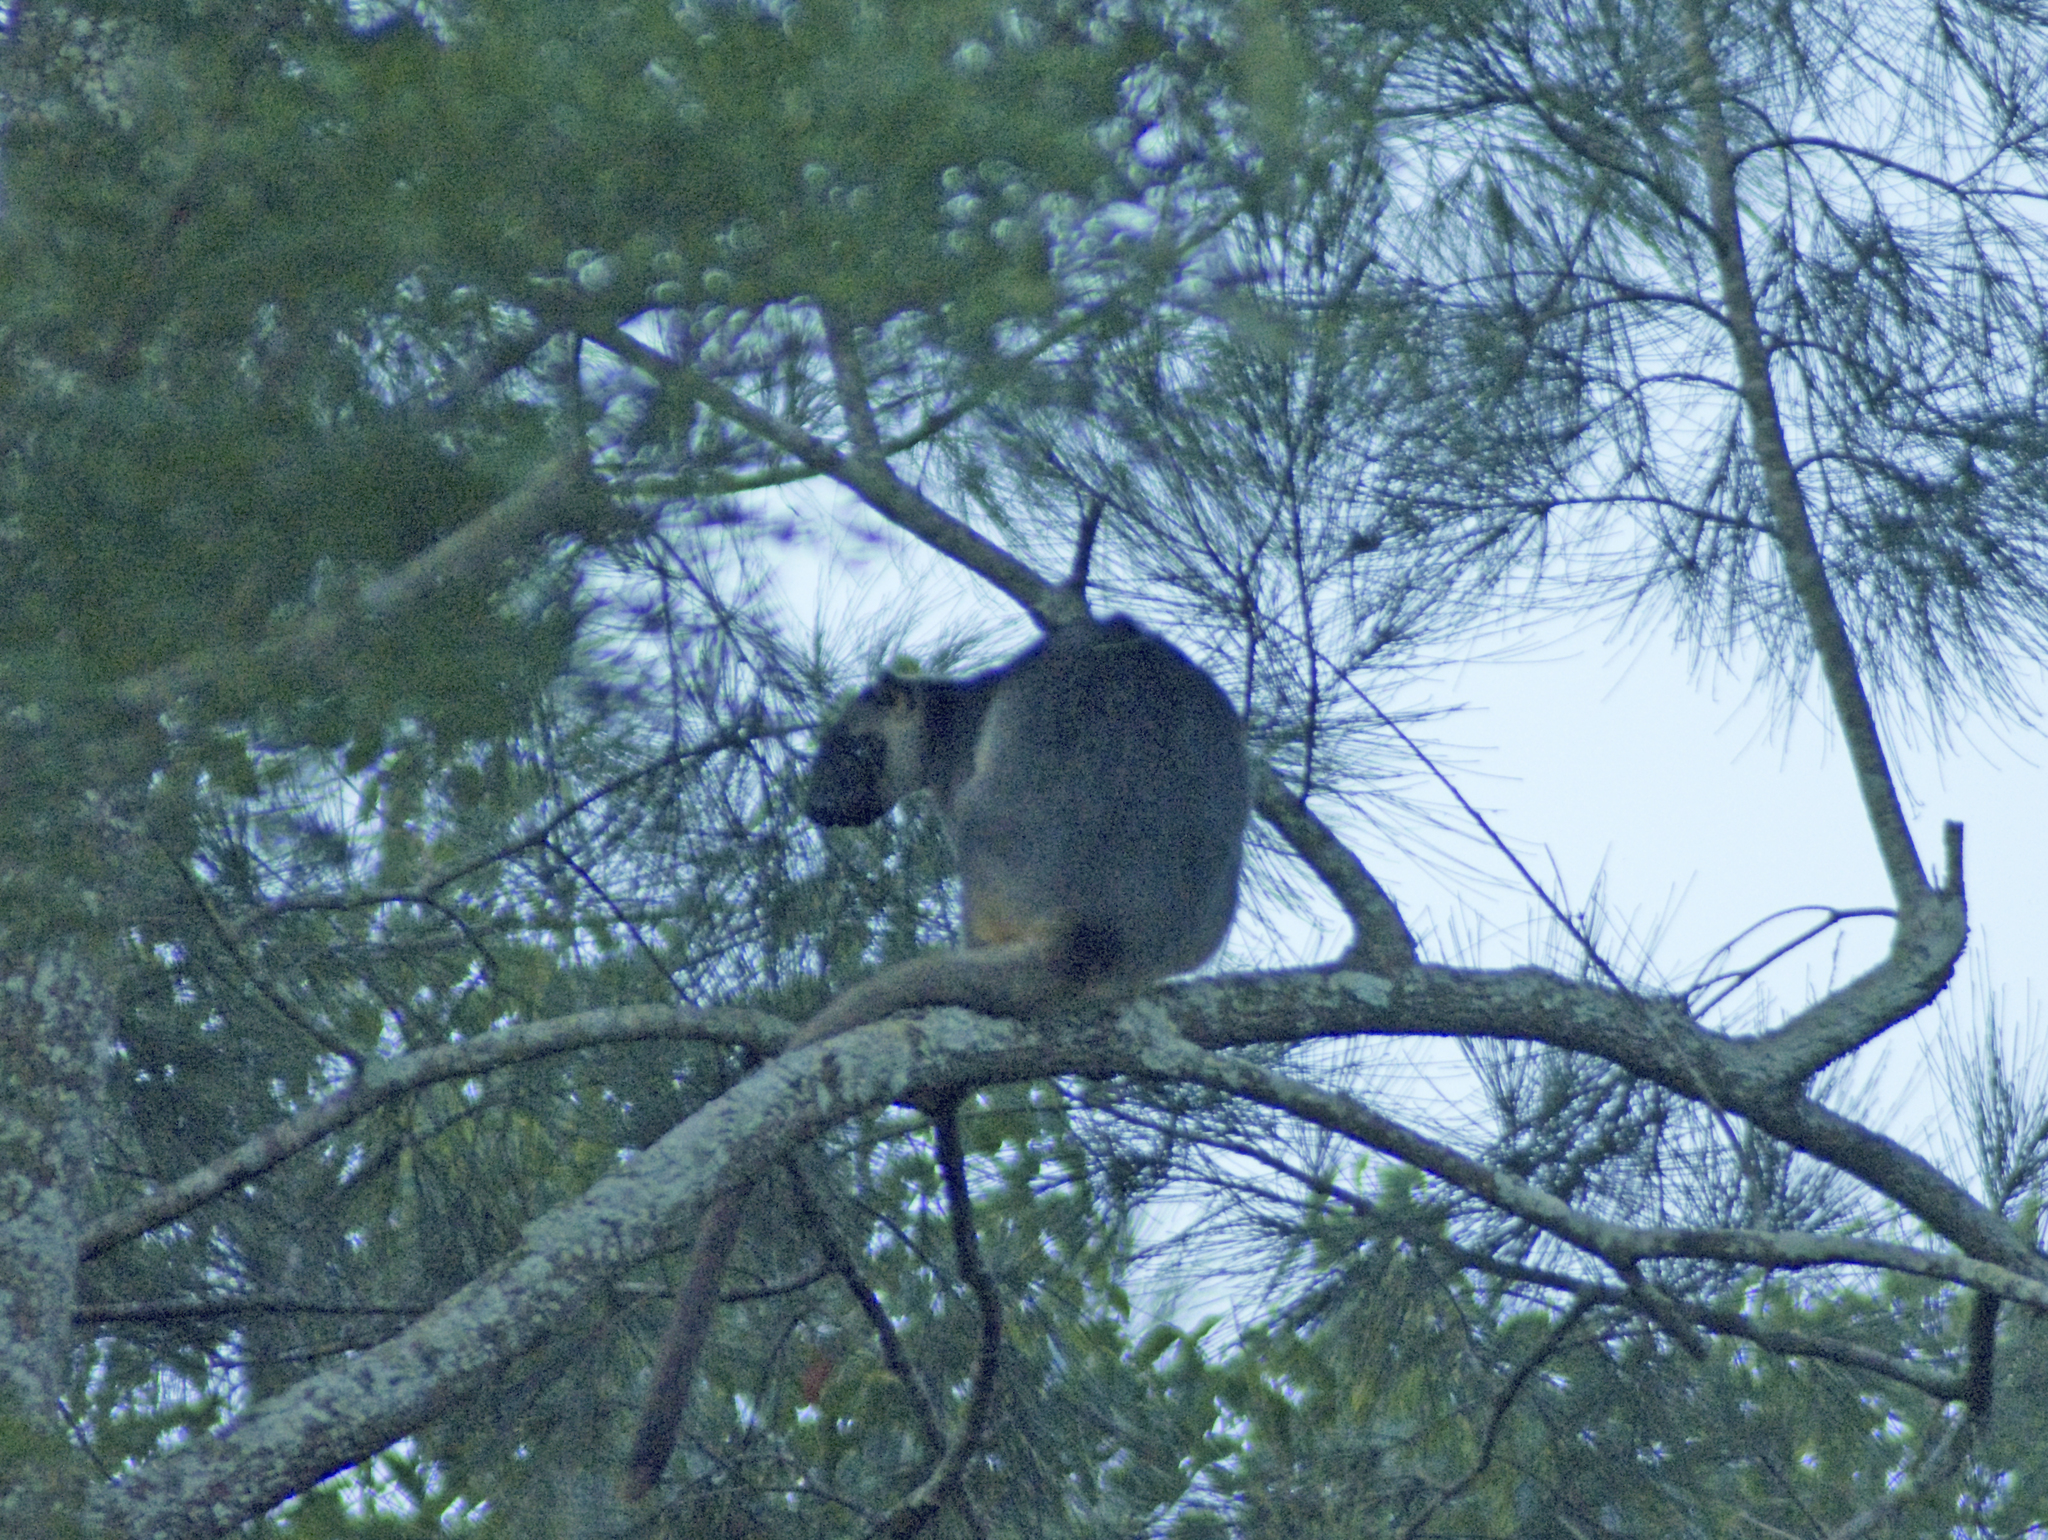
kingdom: Animalia
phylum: Chordata
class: Mammalia
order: Diprotodontia
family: Macropodidae
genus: Dendrolagus
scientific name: Dendrolagus lumholtzi
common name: Lumholtz's tree kangaroo
